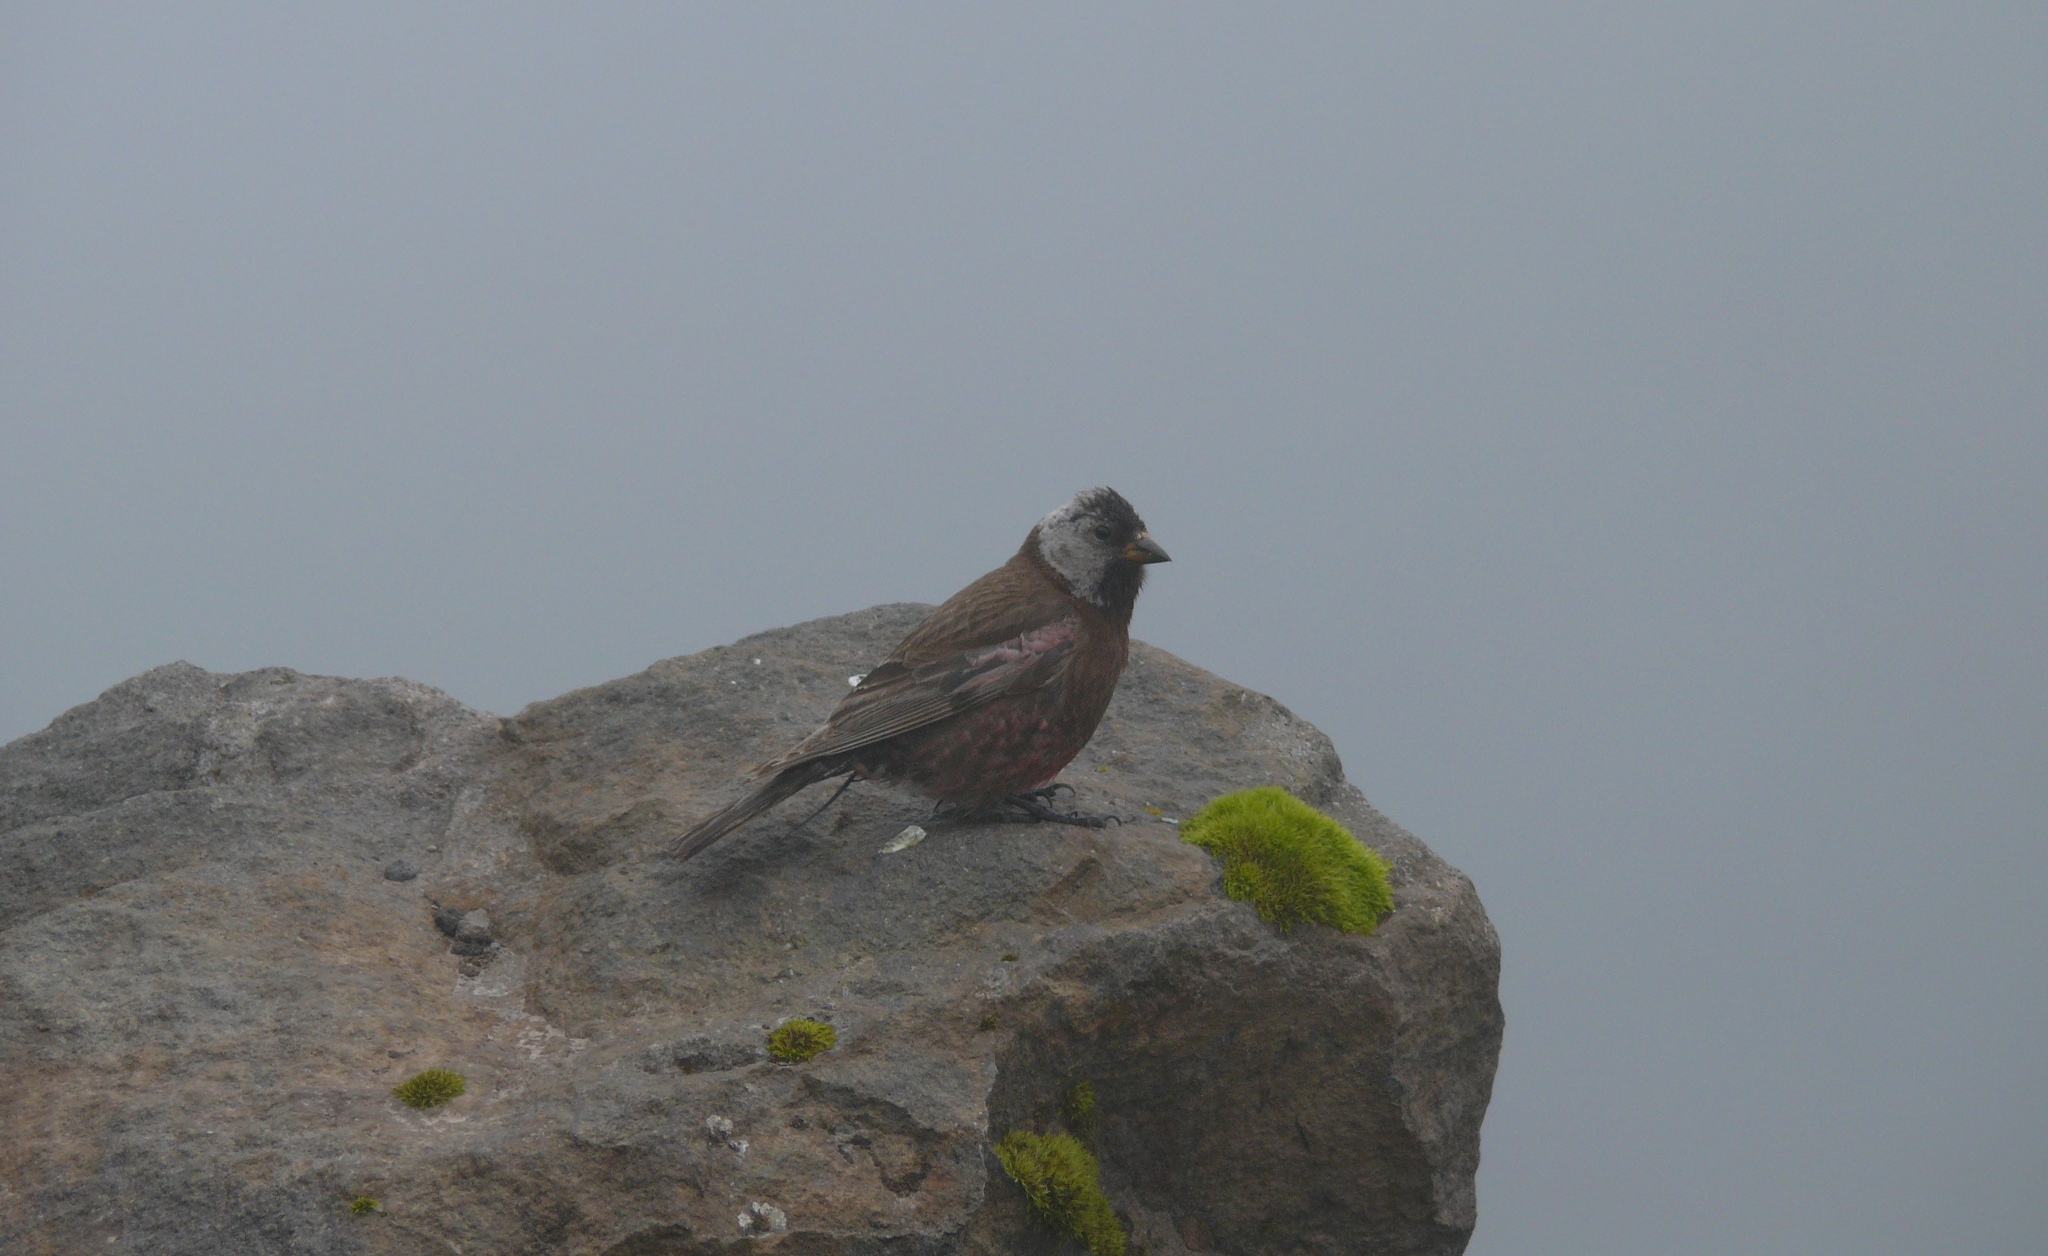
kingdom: Animalia
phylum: Chordata
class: Aves
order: Passeriformes
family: Fringillidae
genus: Leucosticte
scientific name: Leucosticte tephrocotis
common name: Gray-crowned rosy-finch
